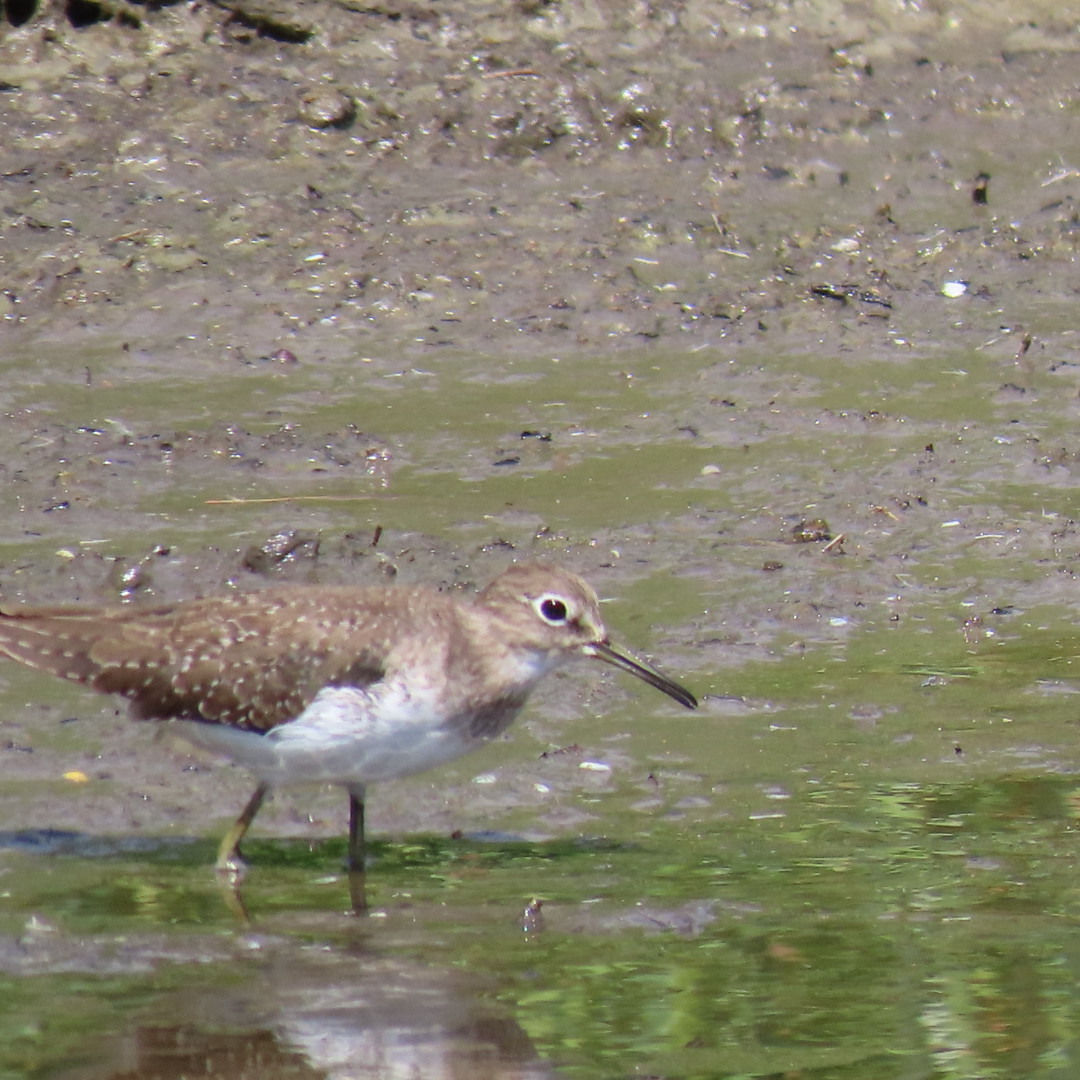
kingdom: Animalia
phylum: Chordata
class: Aves
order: Charadriiformes
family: Scolopacidae
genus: Tringa
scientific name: Tringa solitaria
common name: Solitary sandpiper
